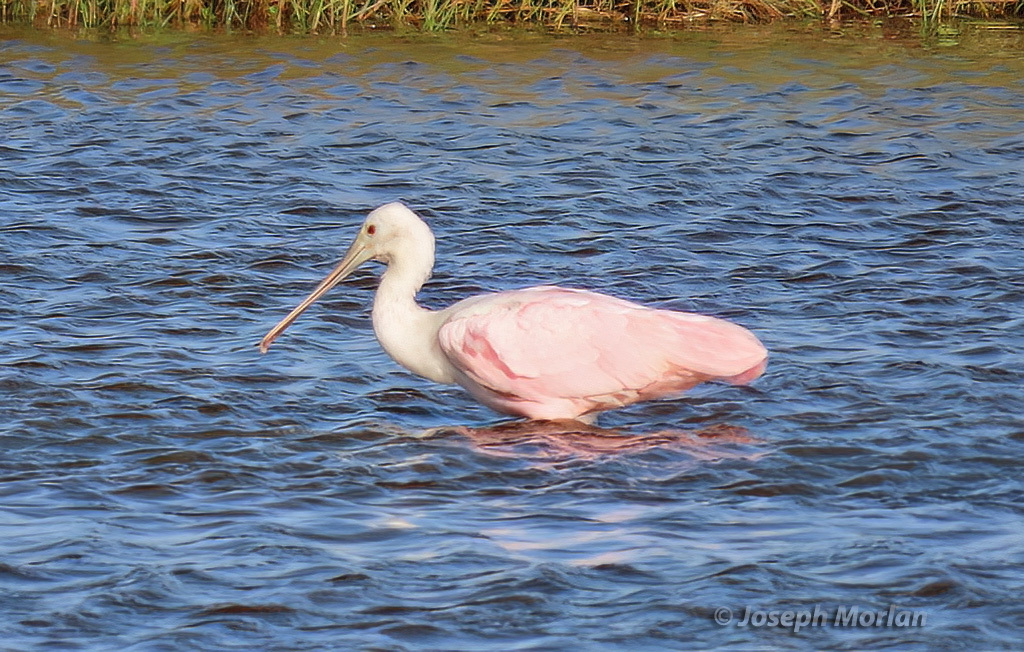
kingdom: Animalia
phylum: Chordata
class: Aves
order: Pelecaniformes
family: Threskiornithidae
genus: Platalea
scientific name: Platalea ajaja
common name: Roseate spoonbill
